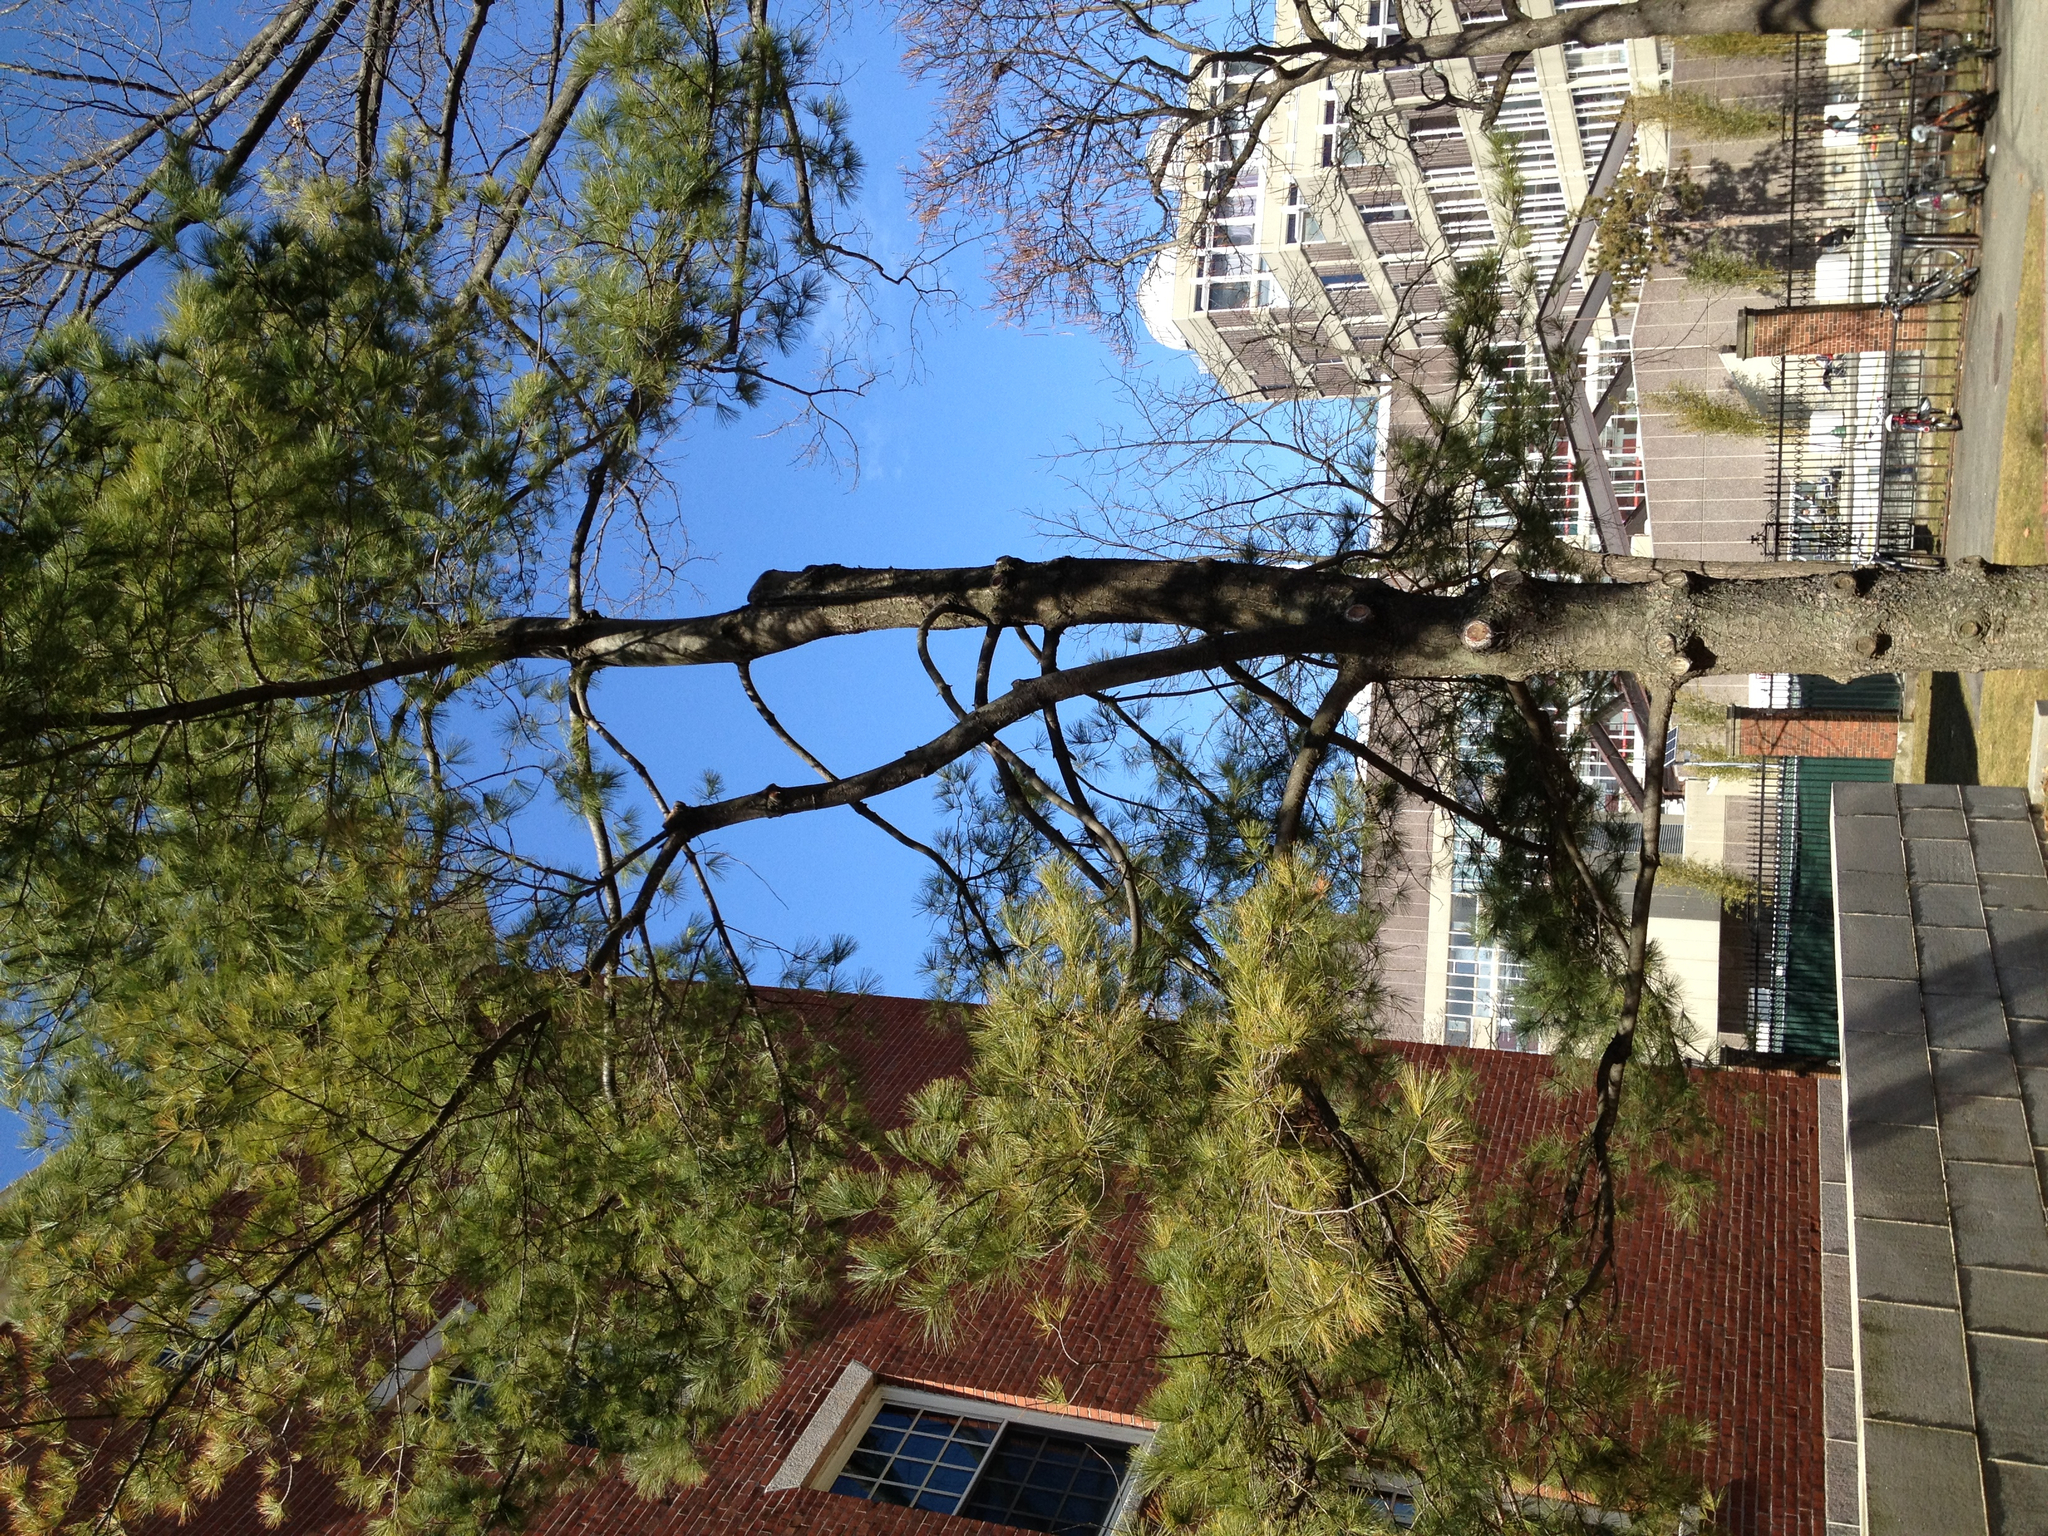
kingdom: Plantae
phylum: Tracheophyta
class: Pinopsida
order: Pinales
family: Pinaceae
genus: Pinus
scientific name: Pinus strobus
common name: Weymouth pine
